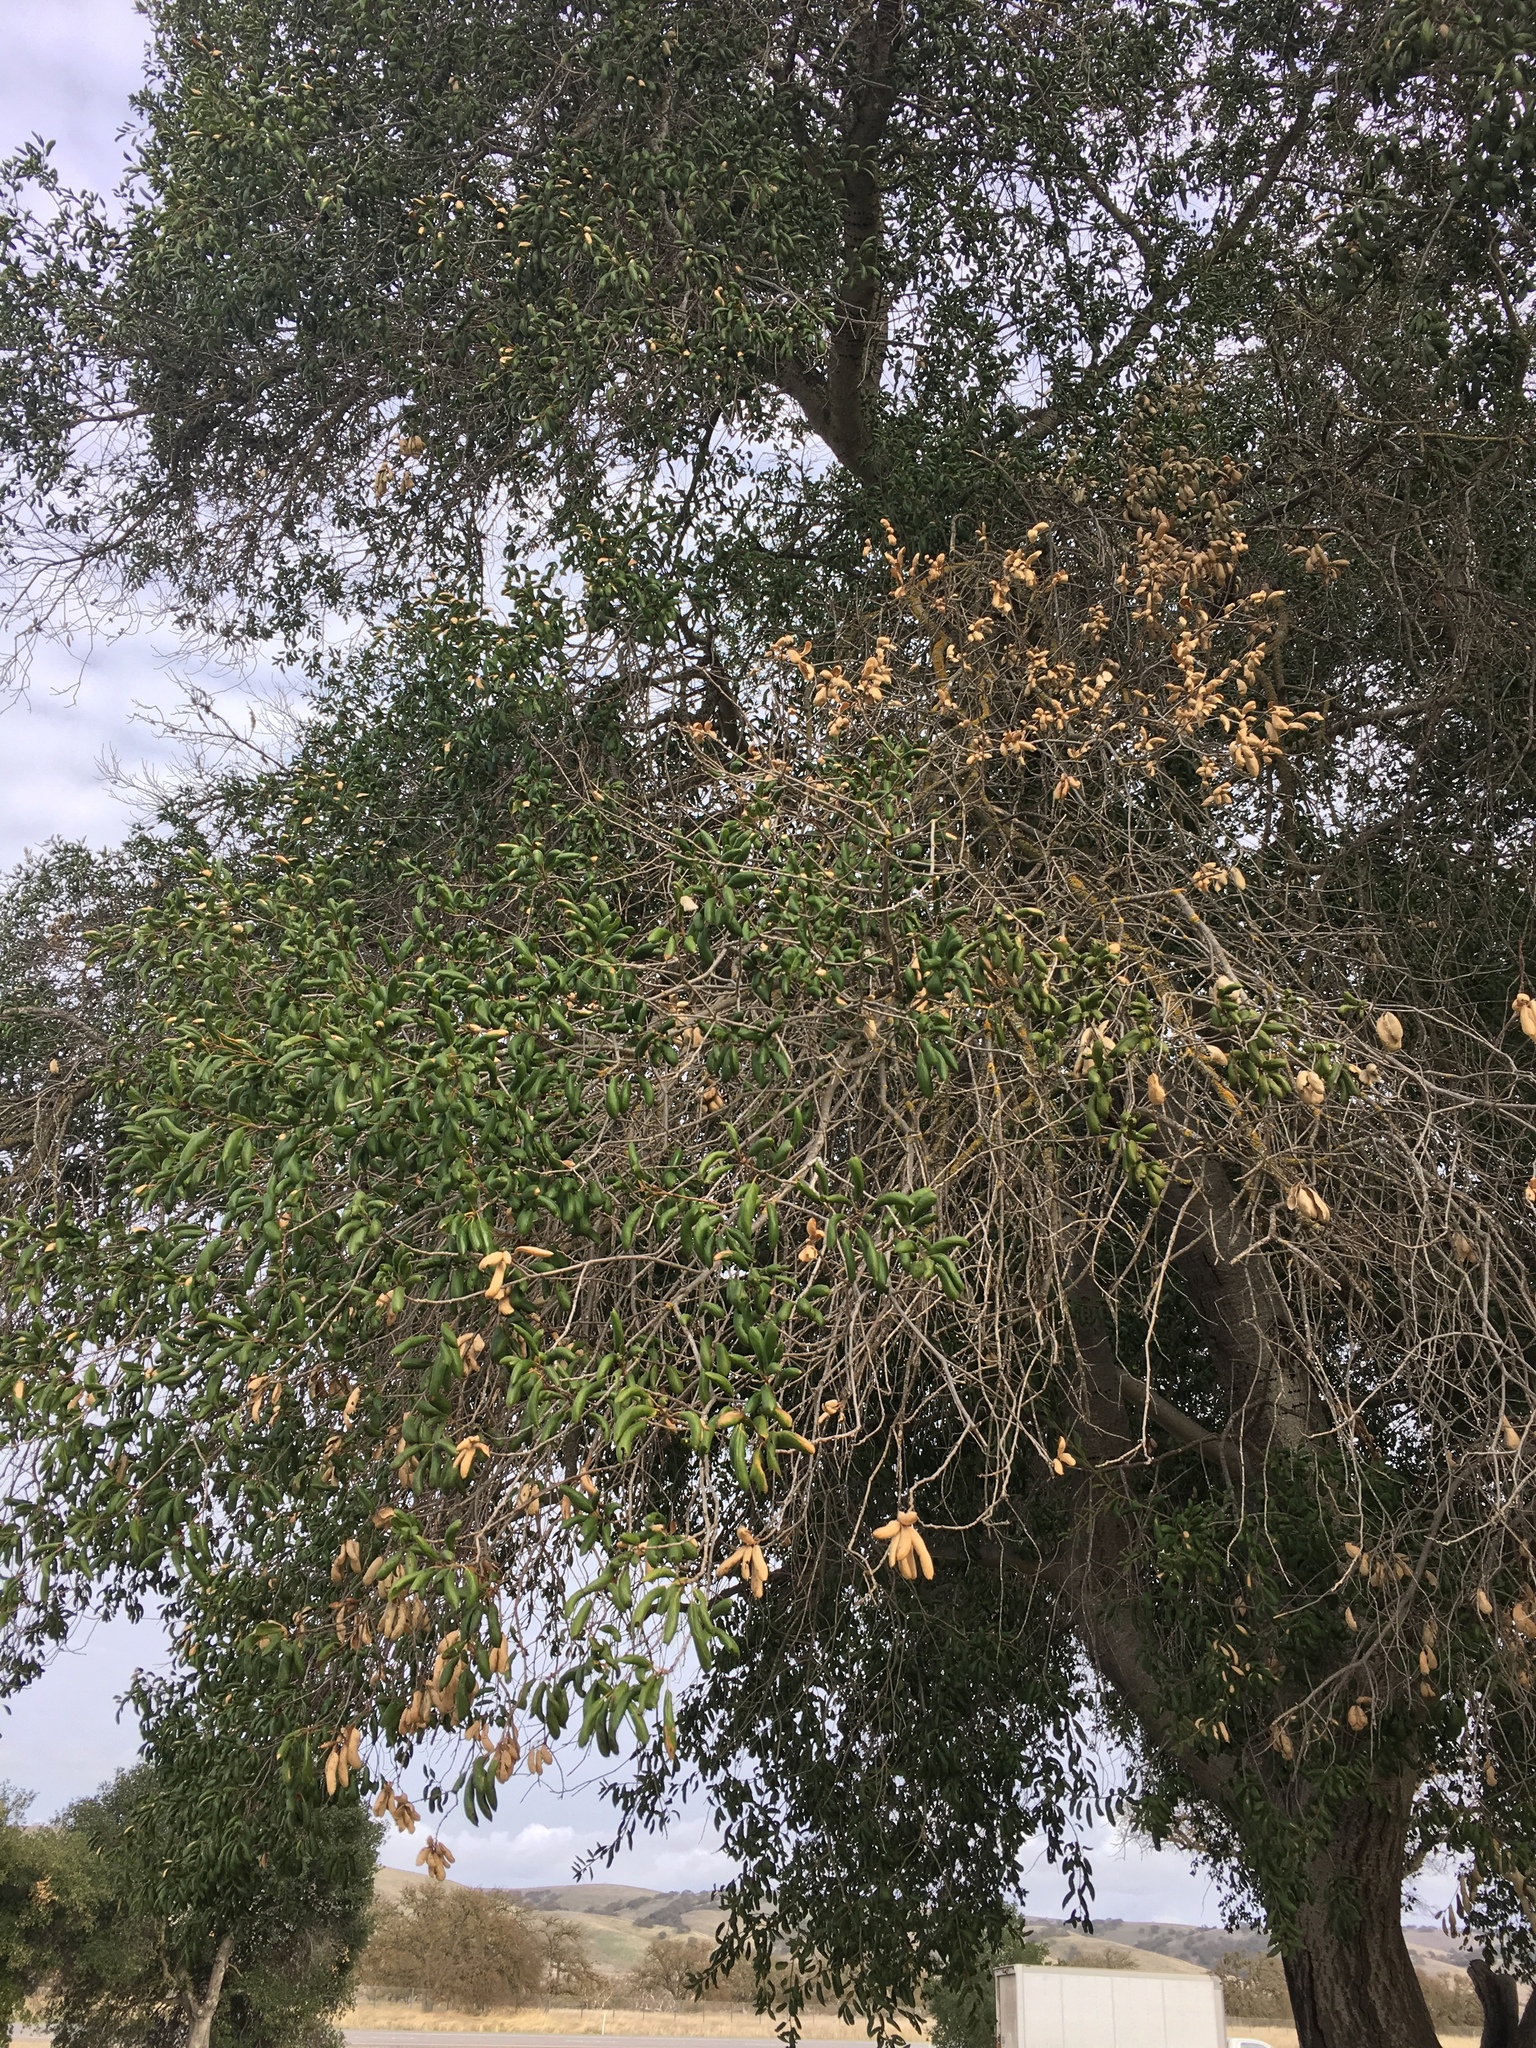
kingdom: Plantae
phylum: Tracheophyta
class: Magnoliopsida
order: Fagales
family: Fagaceae
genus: Quercus
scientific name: Quercus agrifolia
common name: California live oak
